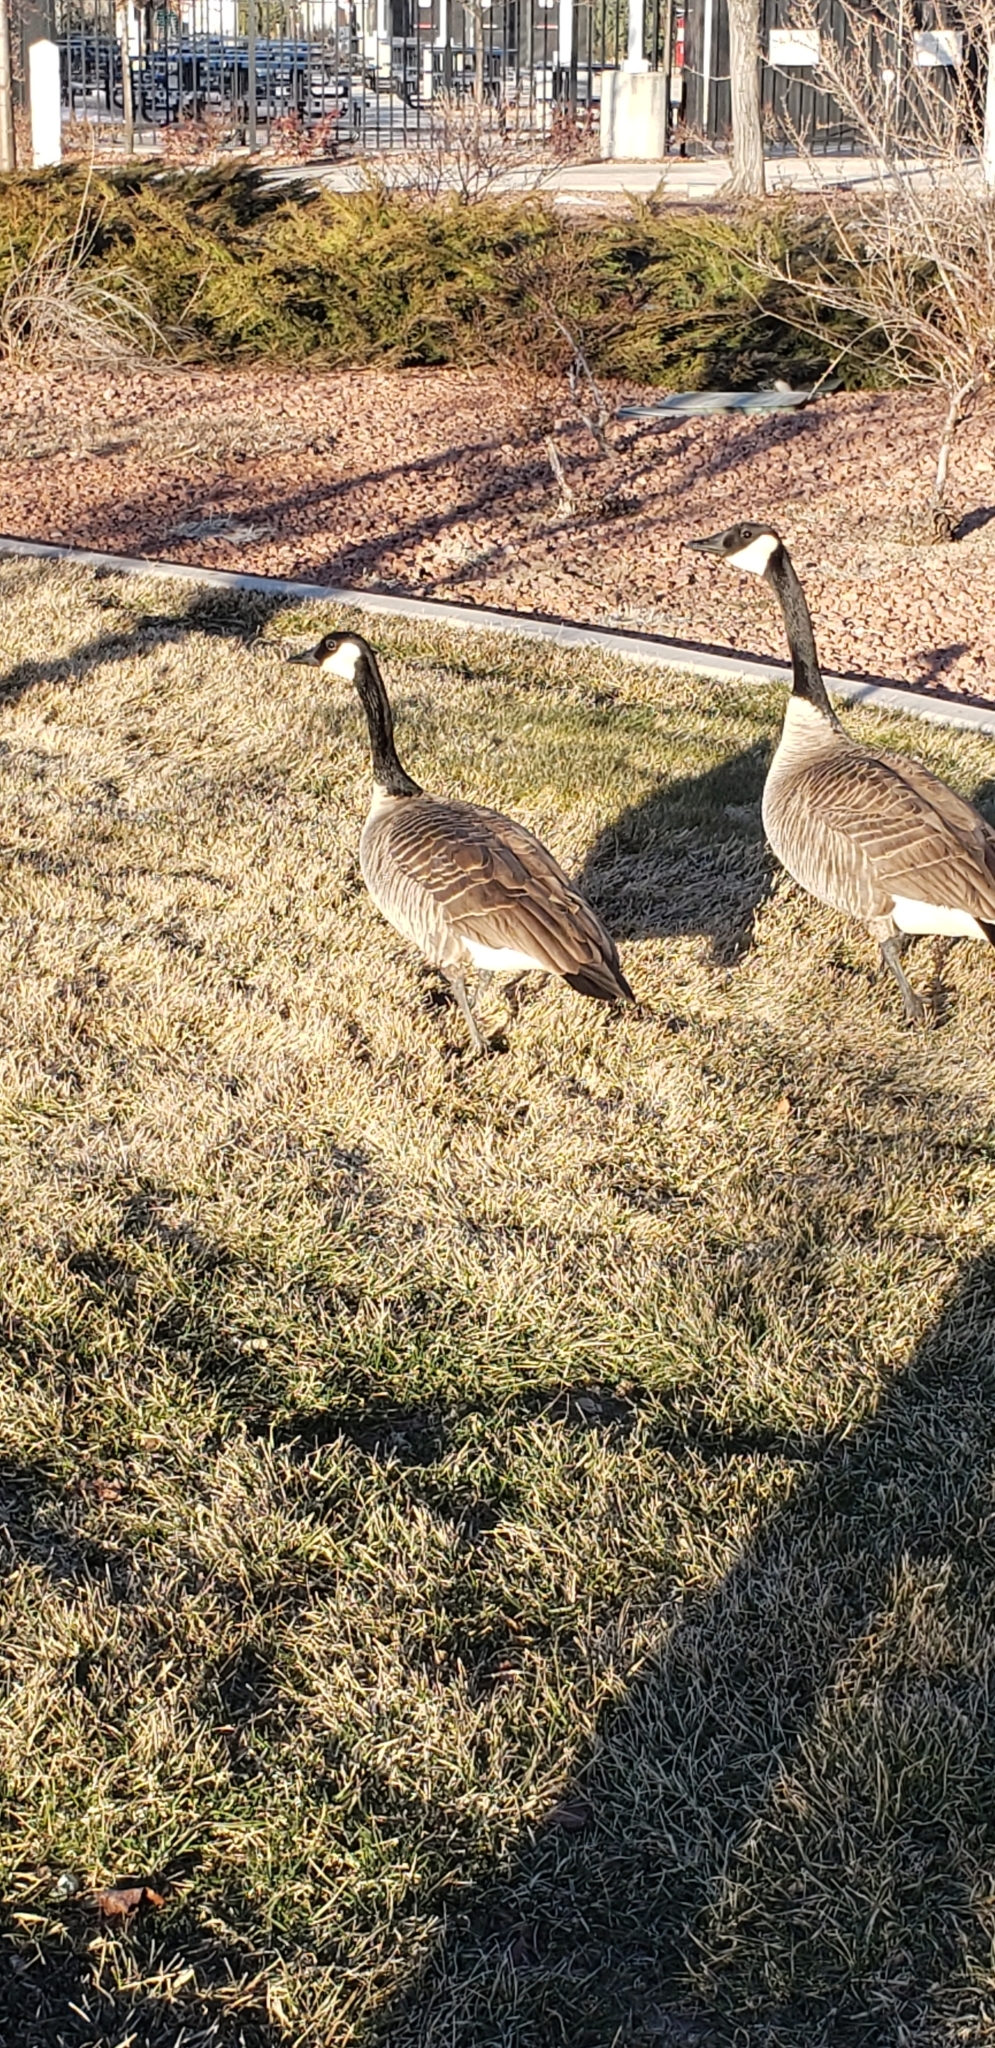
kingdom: Animalia
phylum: Chordata
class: Aves
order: Anseriformes
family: Anatidae
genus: Branta
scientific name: Branta canadensis
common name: Canada goose
